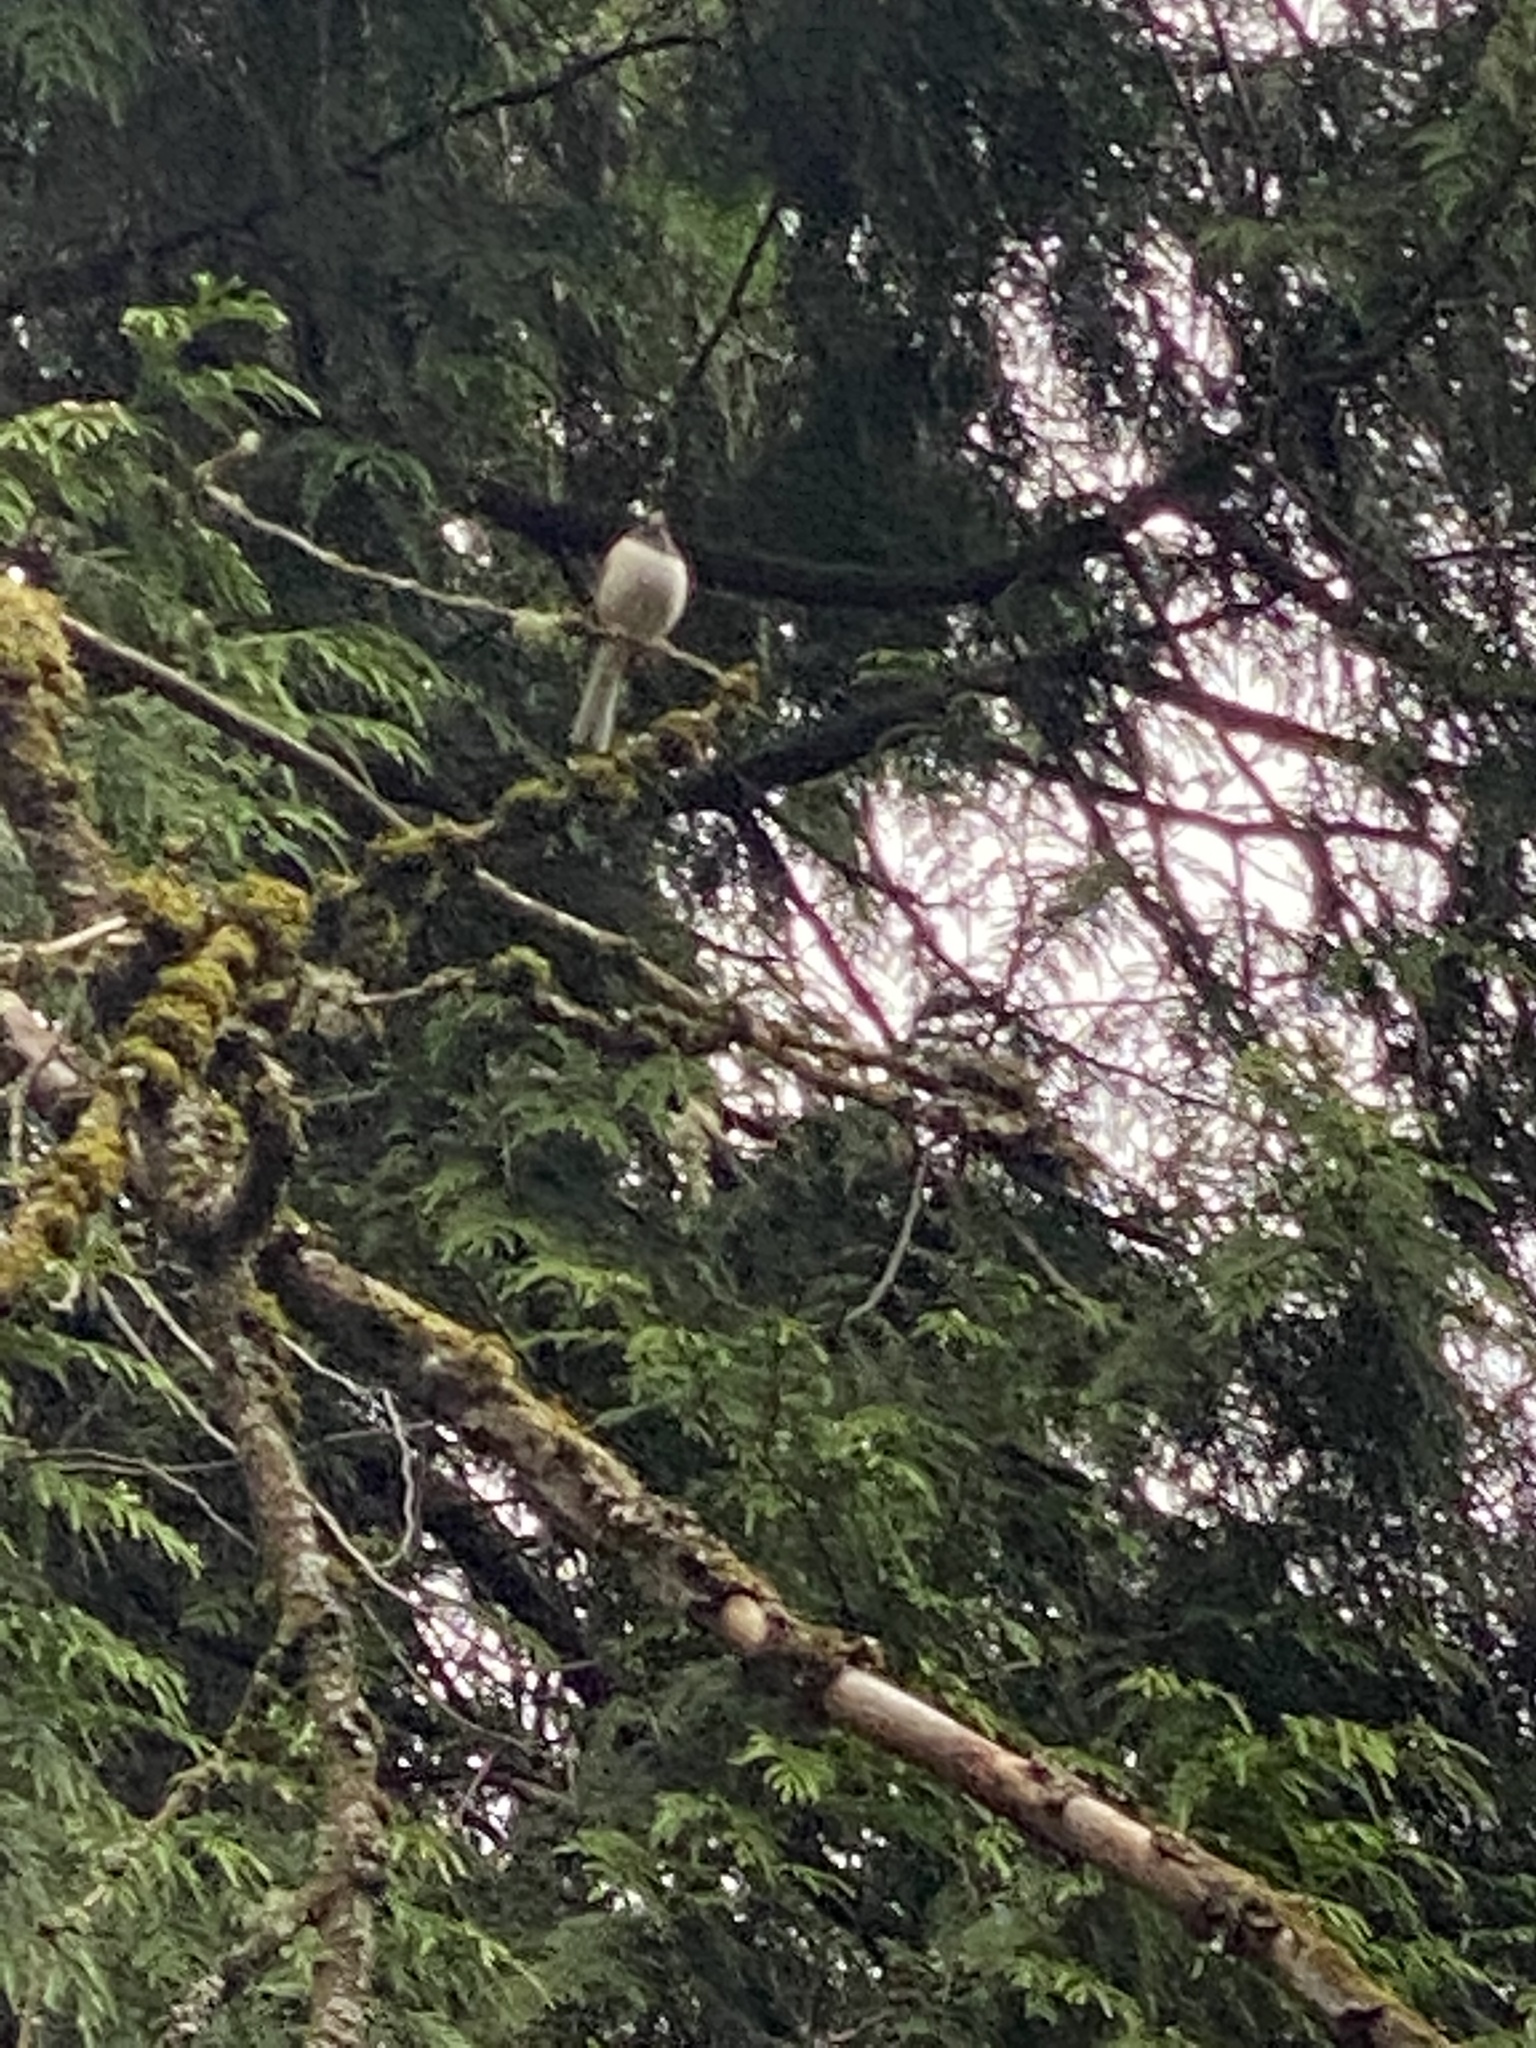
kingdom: Animalia
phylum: Chordata
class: Aves
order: Passeriformes
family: Passerellidae
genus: Junco
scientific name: Junco hyemalis
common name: Dark-eyed junco
